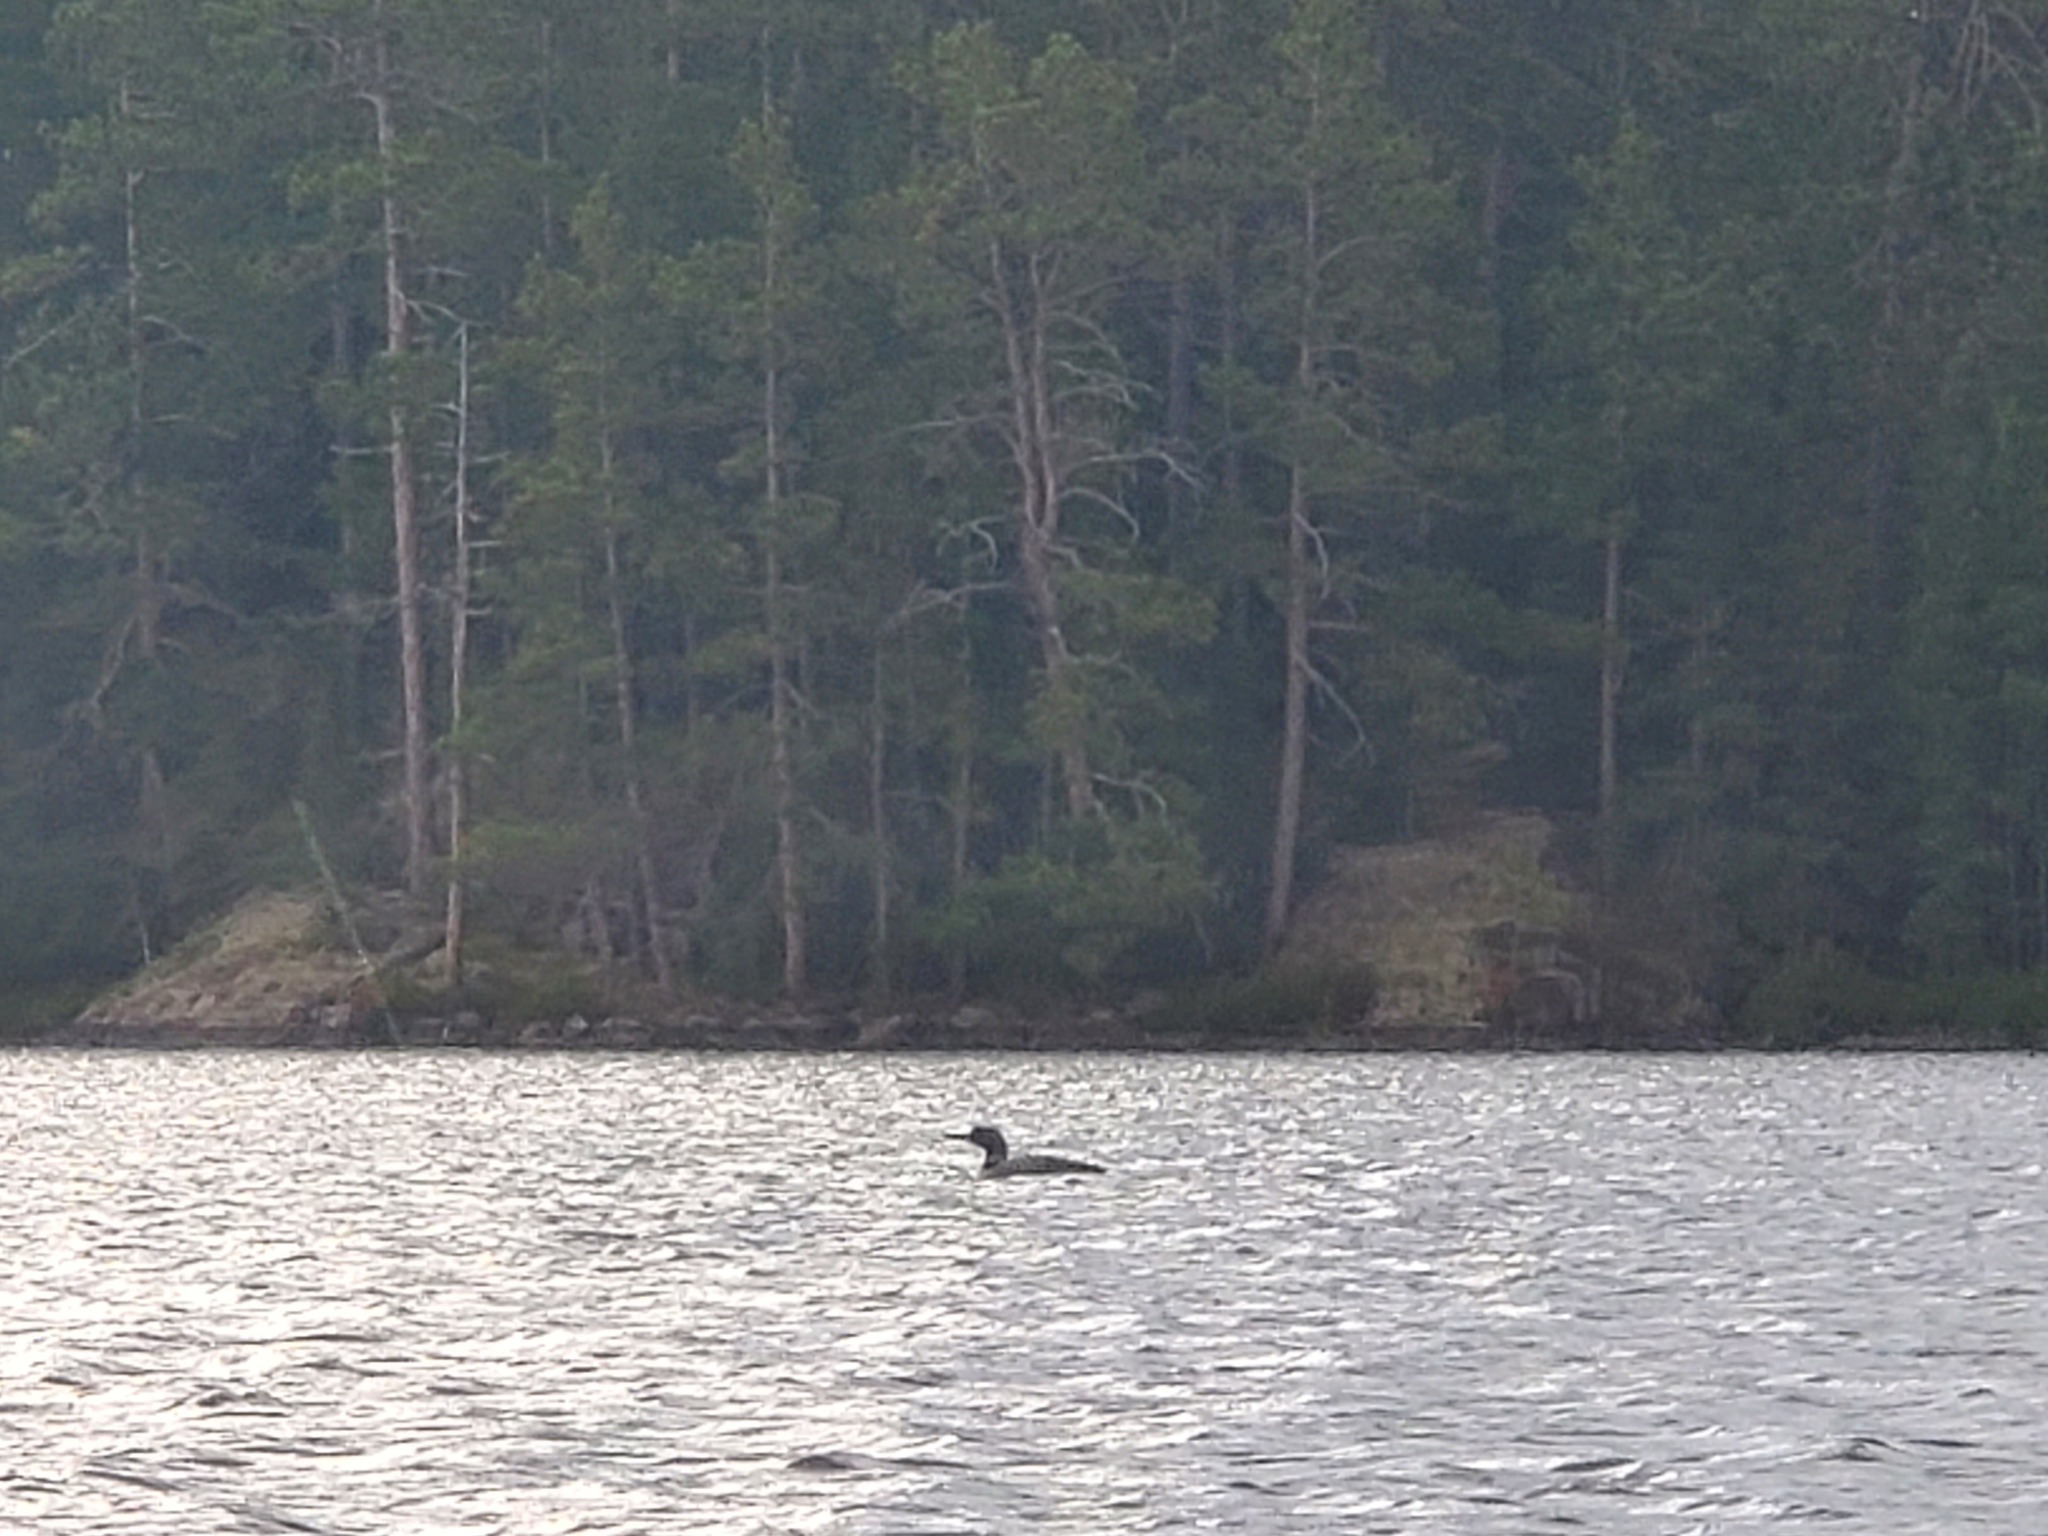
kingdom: Animalia
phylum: Chordata
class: Aves
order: Gaviiformes
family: Gaviidae
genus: Gavia
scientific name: Gavia immer
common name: Common loon
